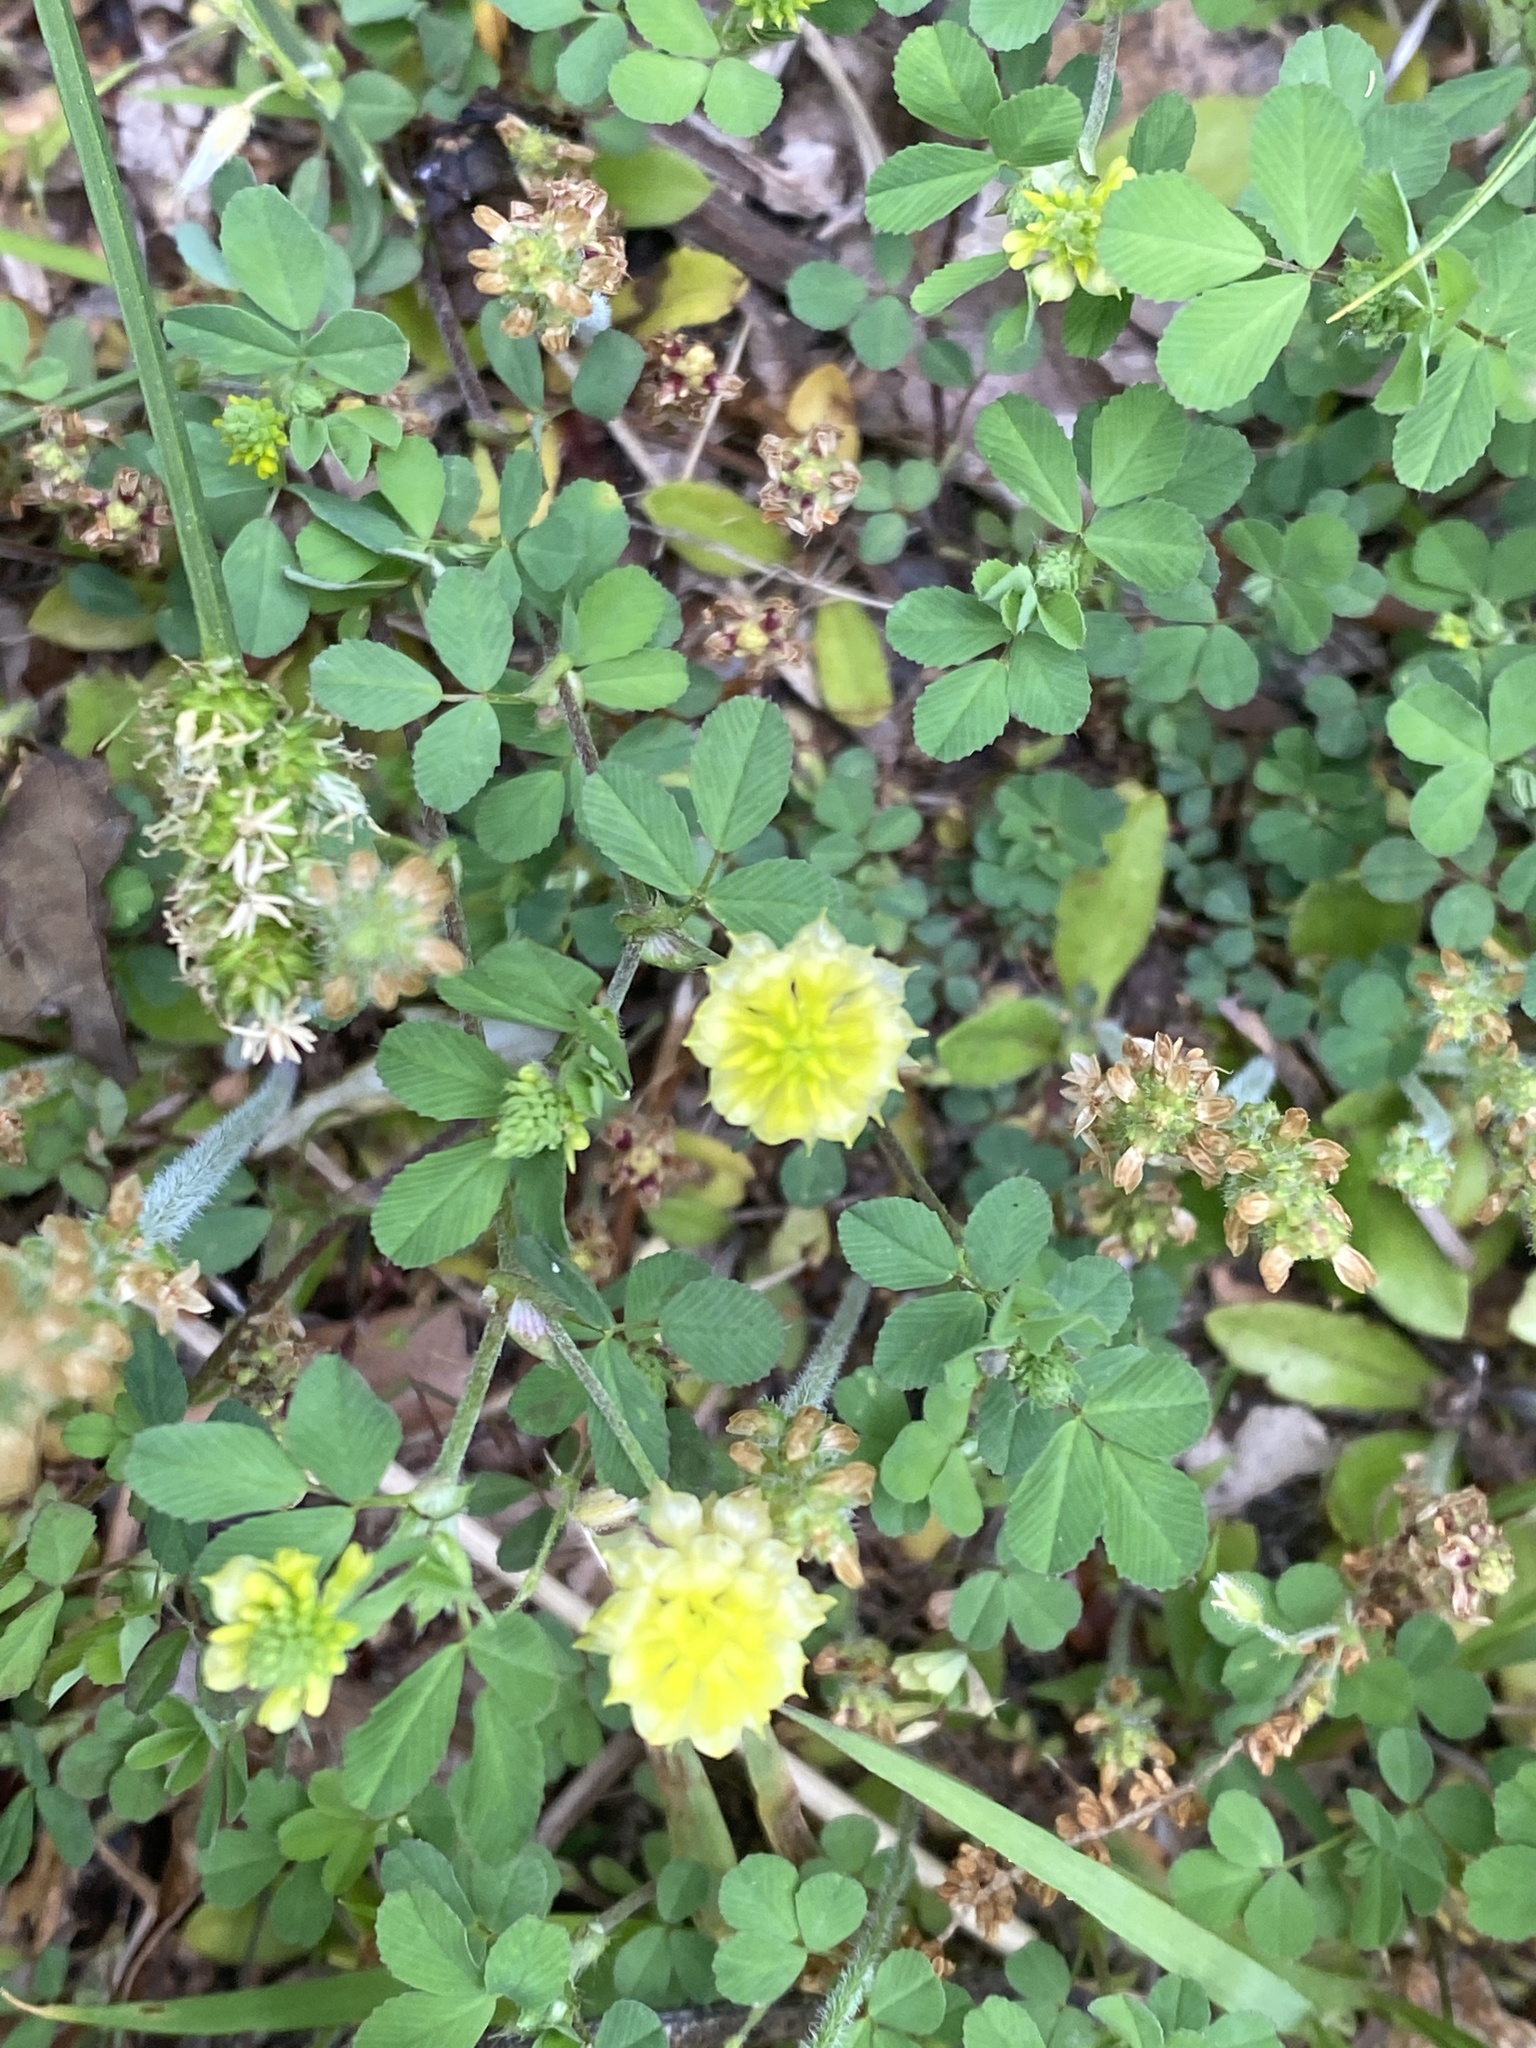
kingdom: Plantae
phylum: Tracheophyta
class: Magnoliopsida
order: Fabales
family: Fabaceae
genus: Trifolium
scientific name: Trifolium campestre
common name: Field clover
